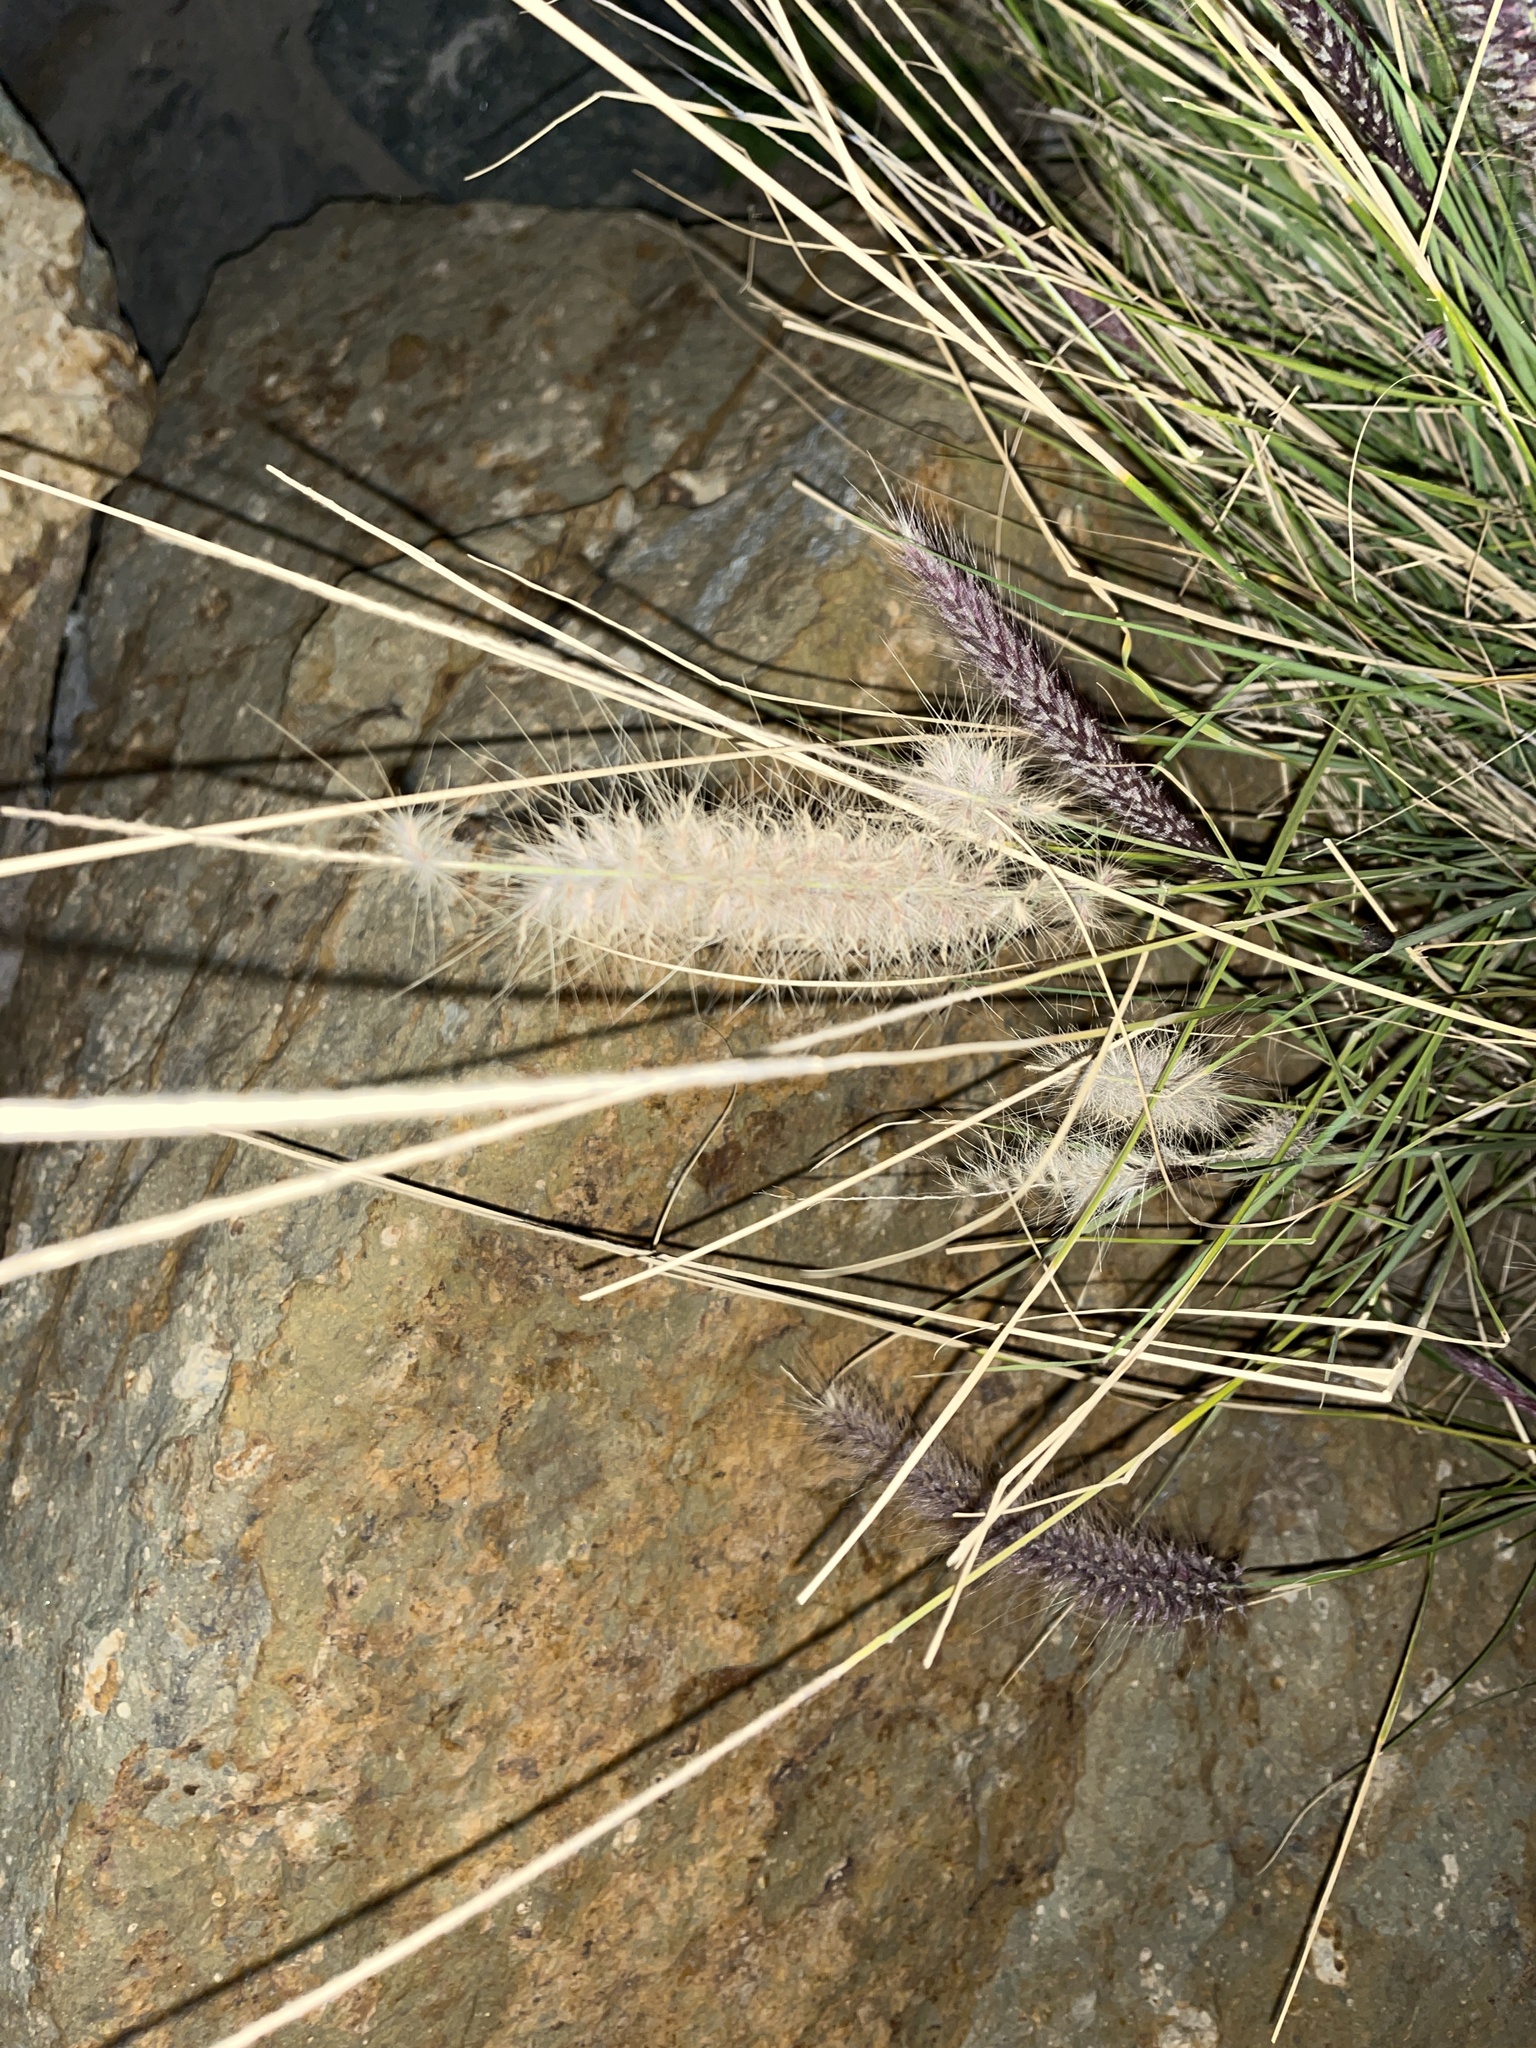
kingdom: Plantae
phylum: Tracheophyta
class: Liliopsida
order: Poales
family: Poaceae
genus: Cenchrus
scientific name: Cenchrus setaceus
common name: Crimson fountaingrass
